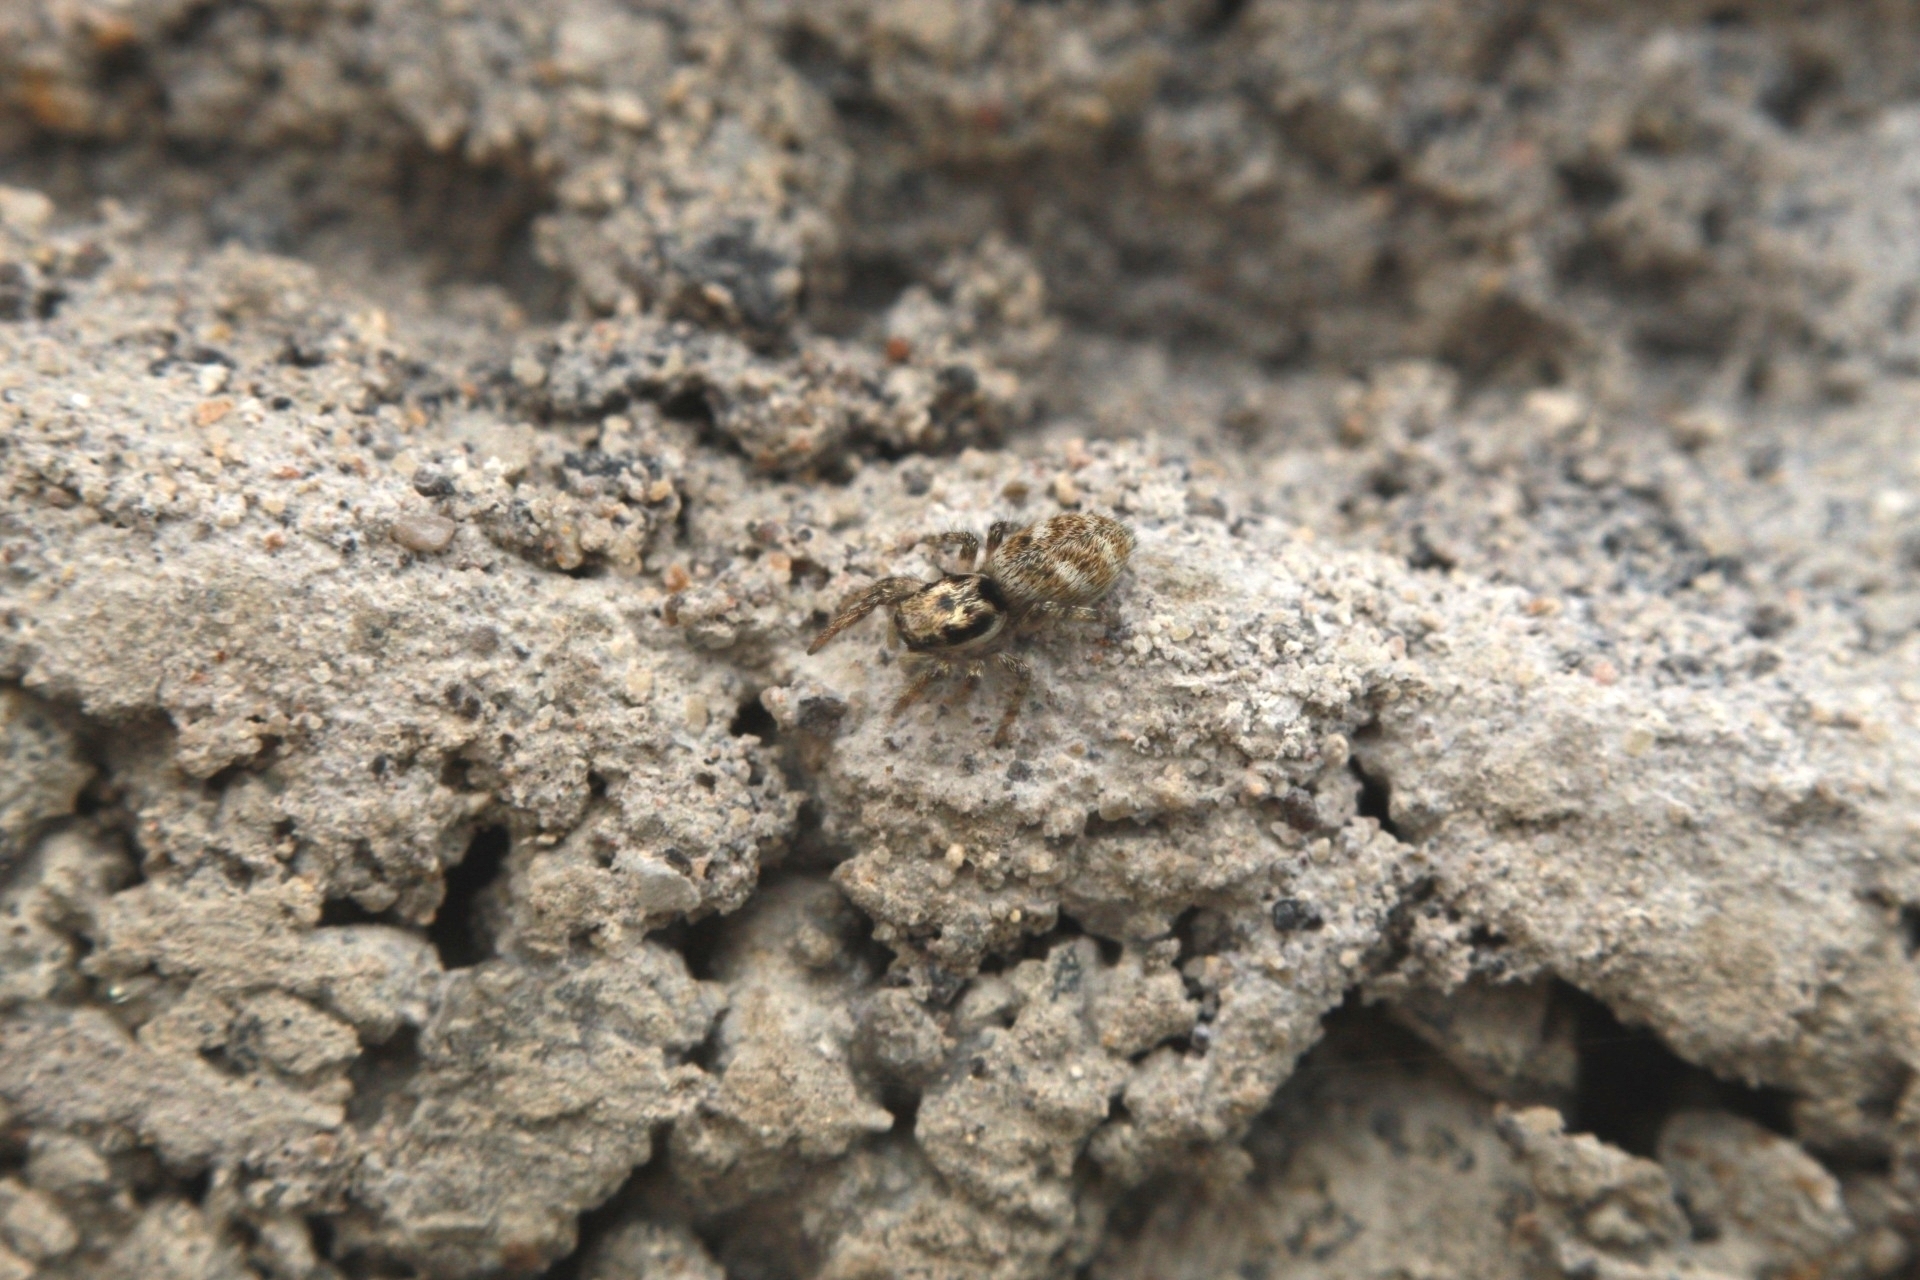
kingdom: Animalia
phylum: Arthropoda
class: Arachnida
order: Araneae
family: Salticidae
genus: Salticus
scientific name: Salticus scenicus
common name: Zebra jumper
